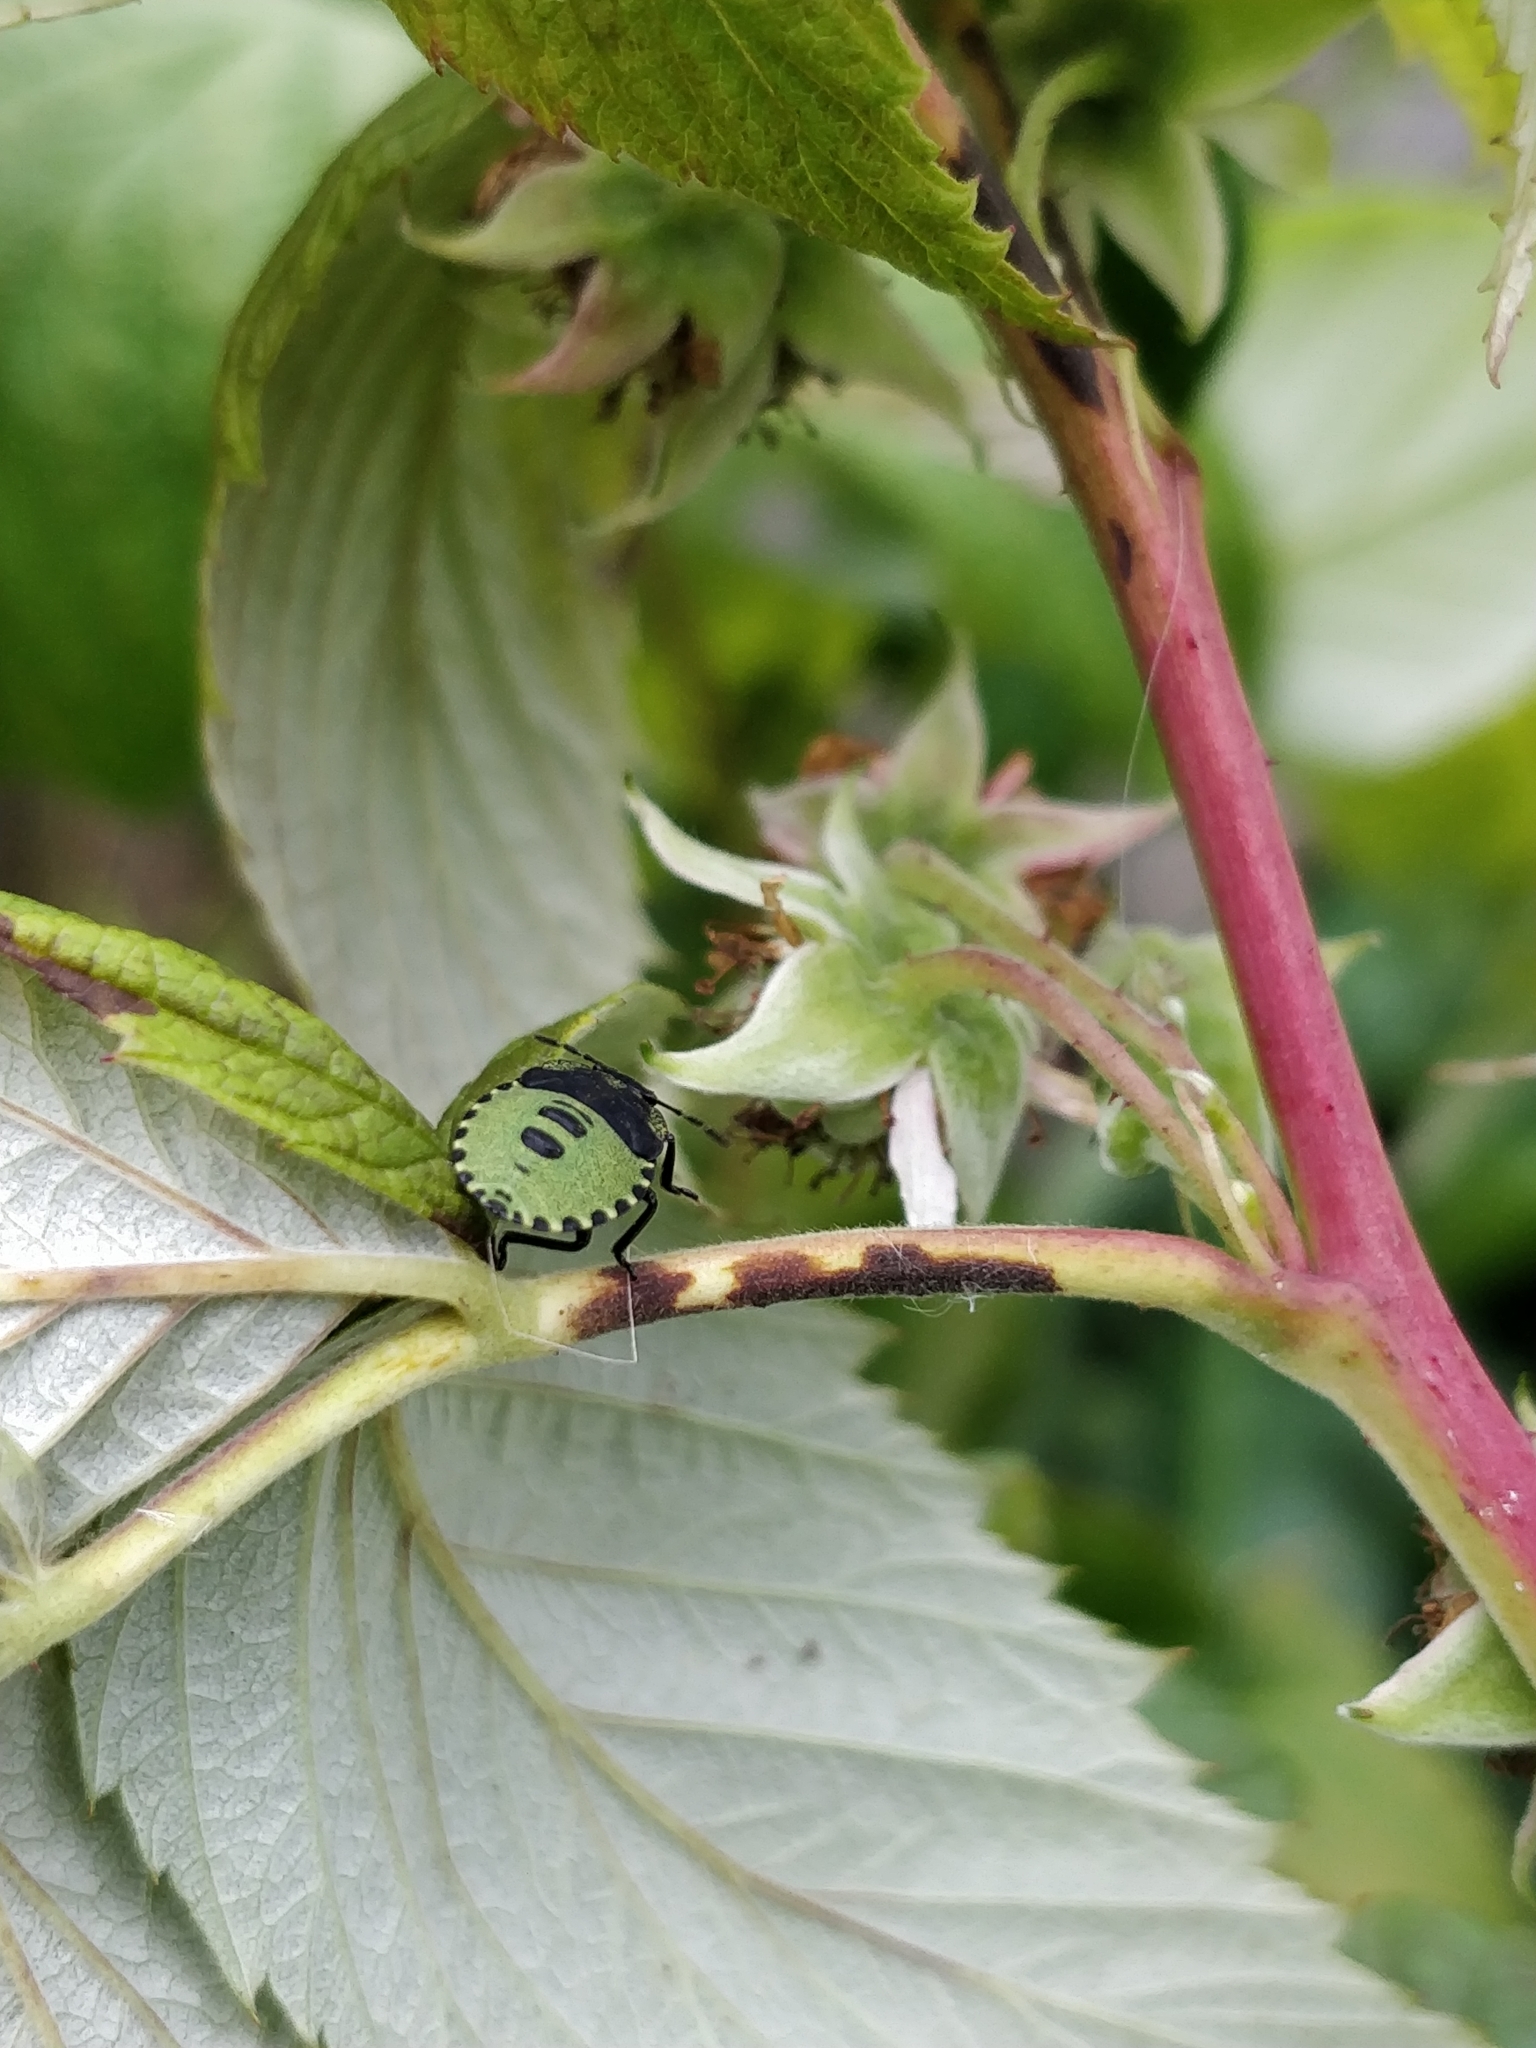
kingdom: Animalia
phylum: Arthropoda
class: Insecta
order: Hemiptera
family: Pentatomidae
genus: Palomena
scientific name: Palomena prasina
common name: Green shieldbug
